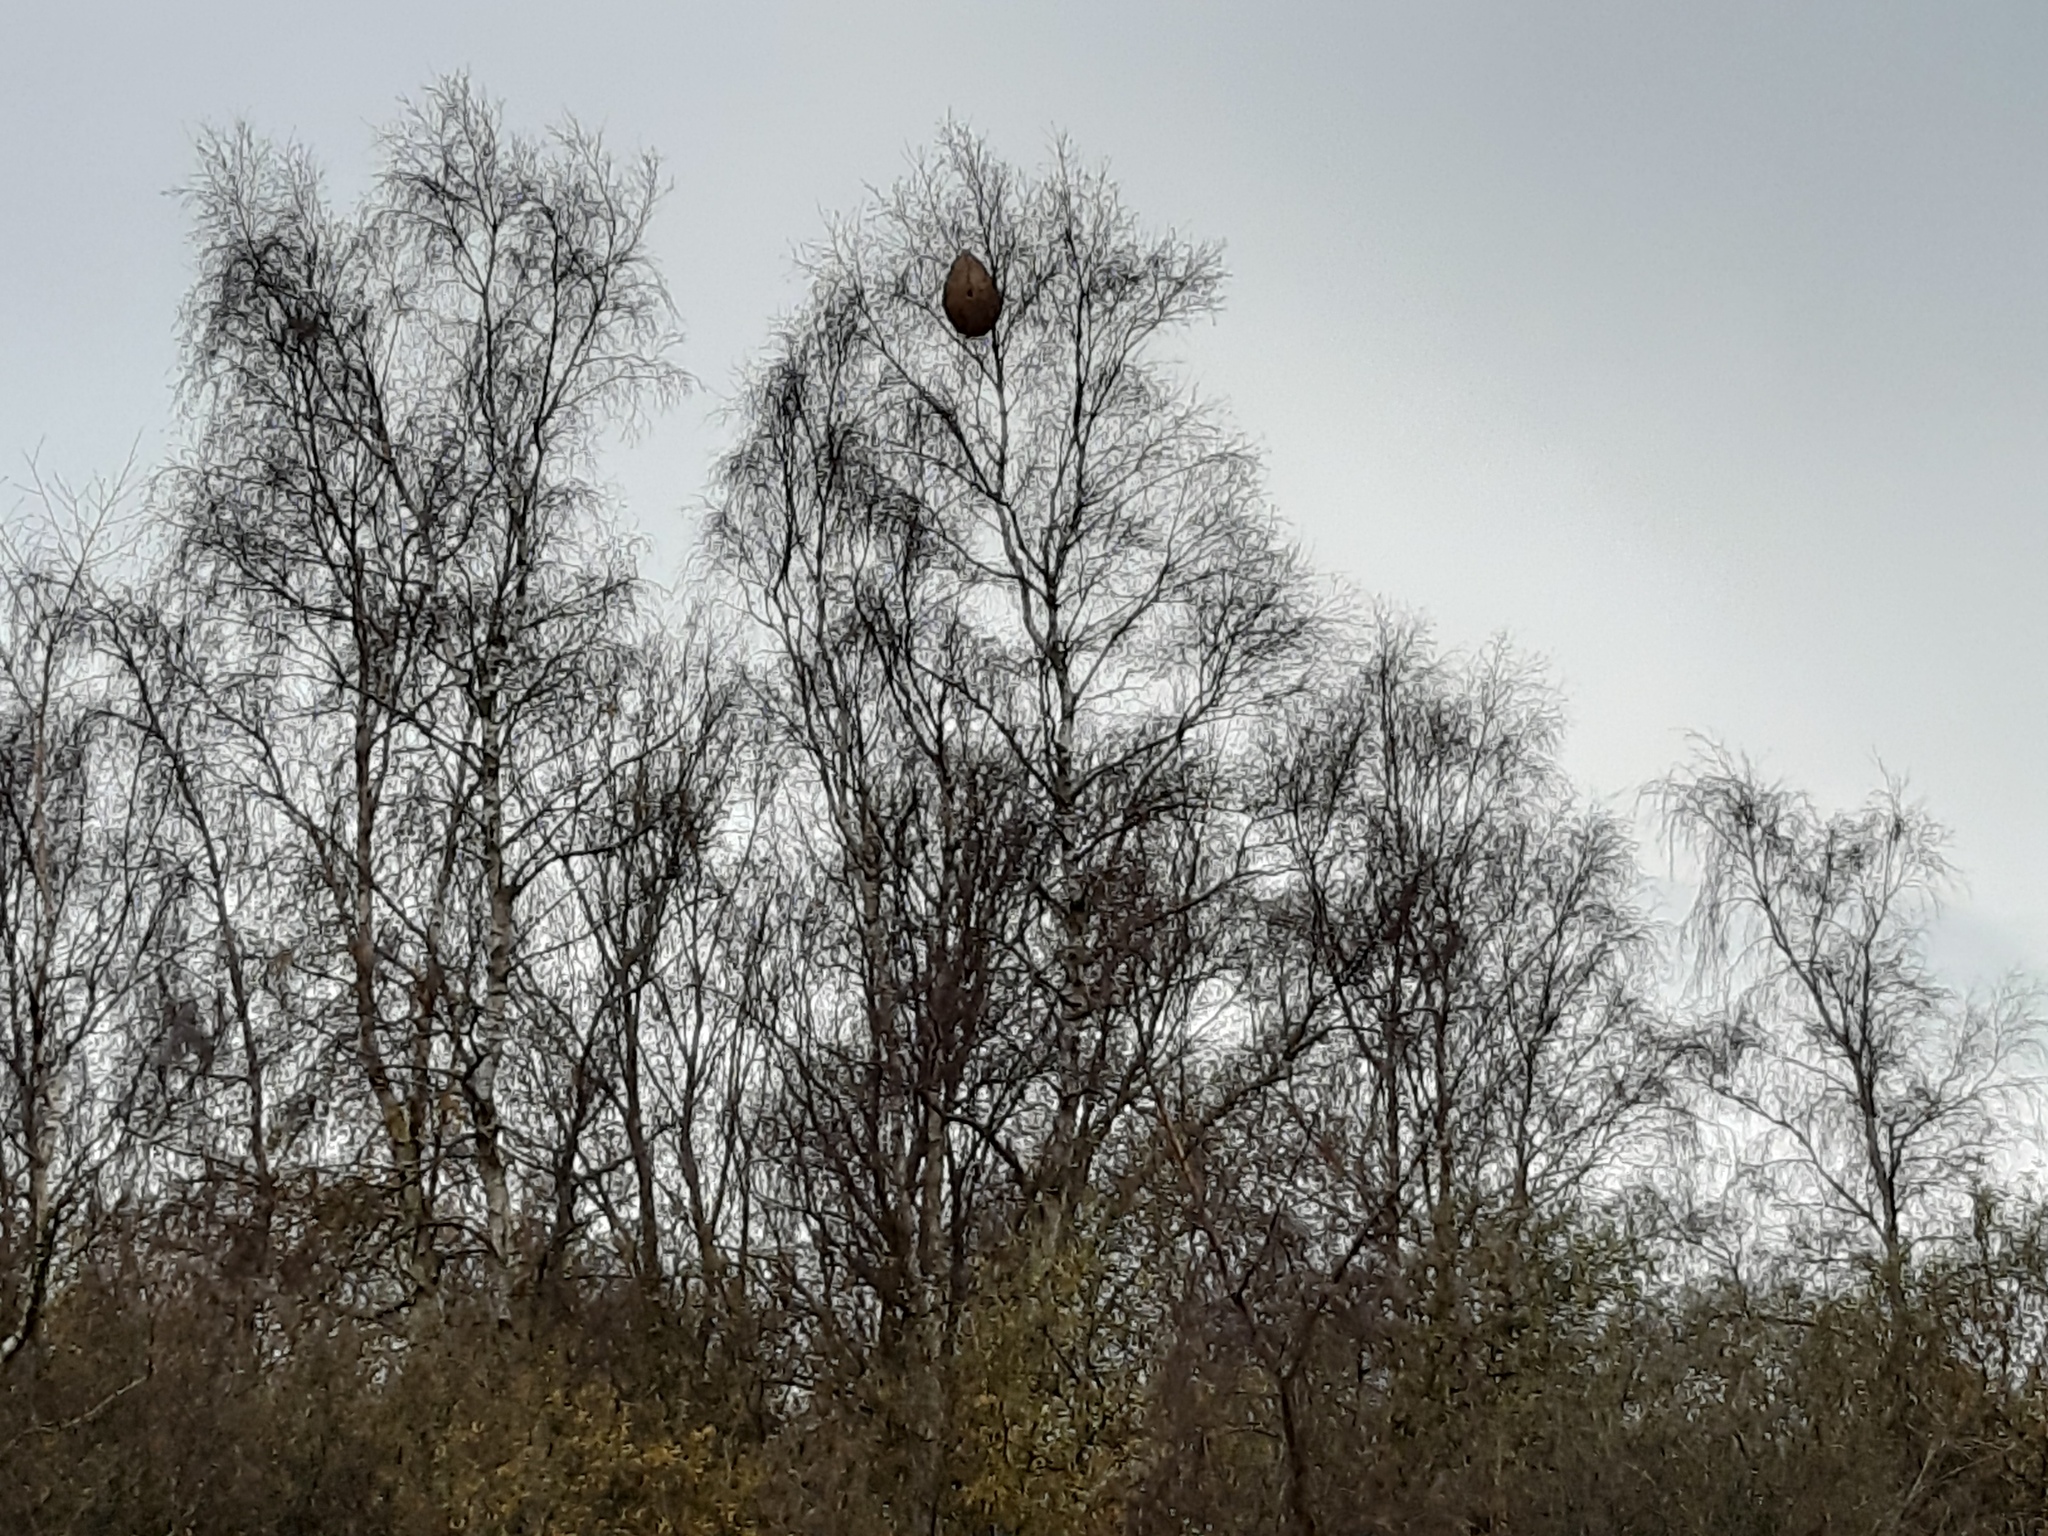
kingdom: Animalia
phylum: Arthropoda
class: Insecta
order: Hymenoptera
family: Vespidae
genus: Vespa
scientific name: Vespa velutina
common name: Asian hornet
